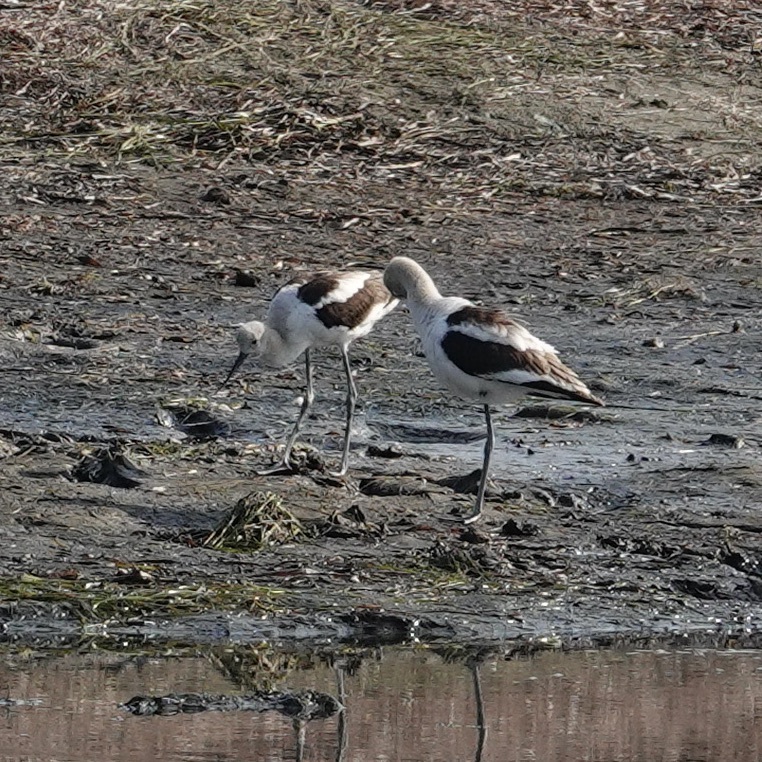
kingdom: Animalia
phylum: Chordata
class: Aves
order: Charadriiformes
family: Recurvirostridae
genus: Recurvirostra
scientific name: Recurvirostra americana
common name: American avocet
